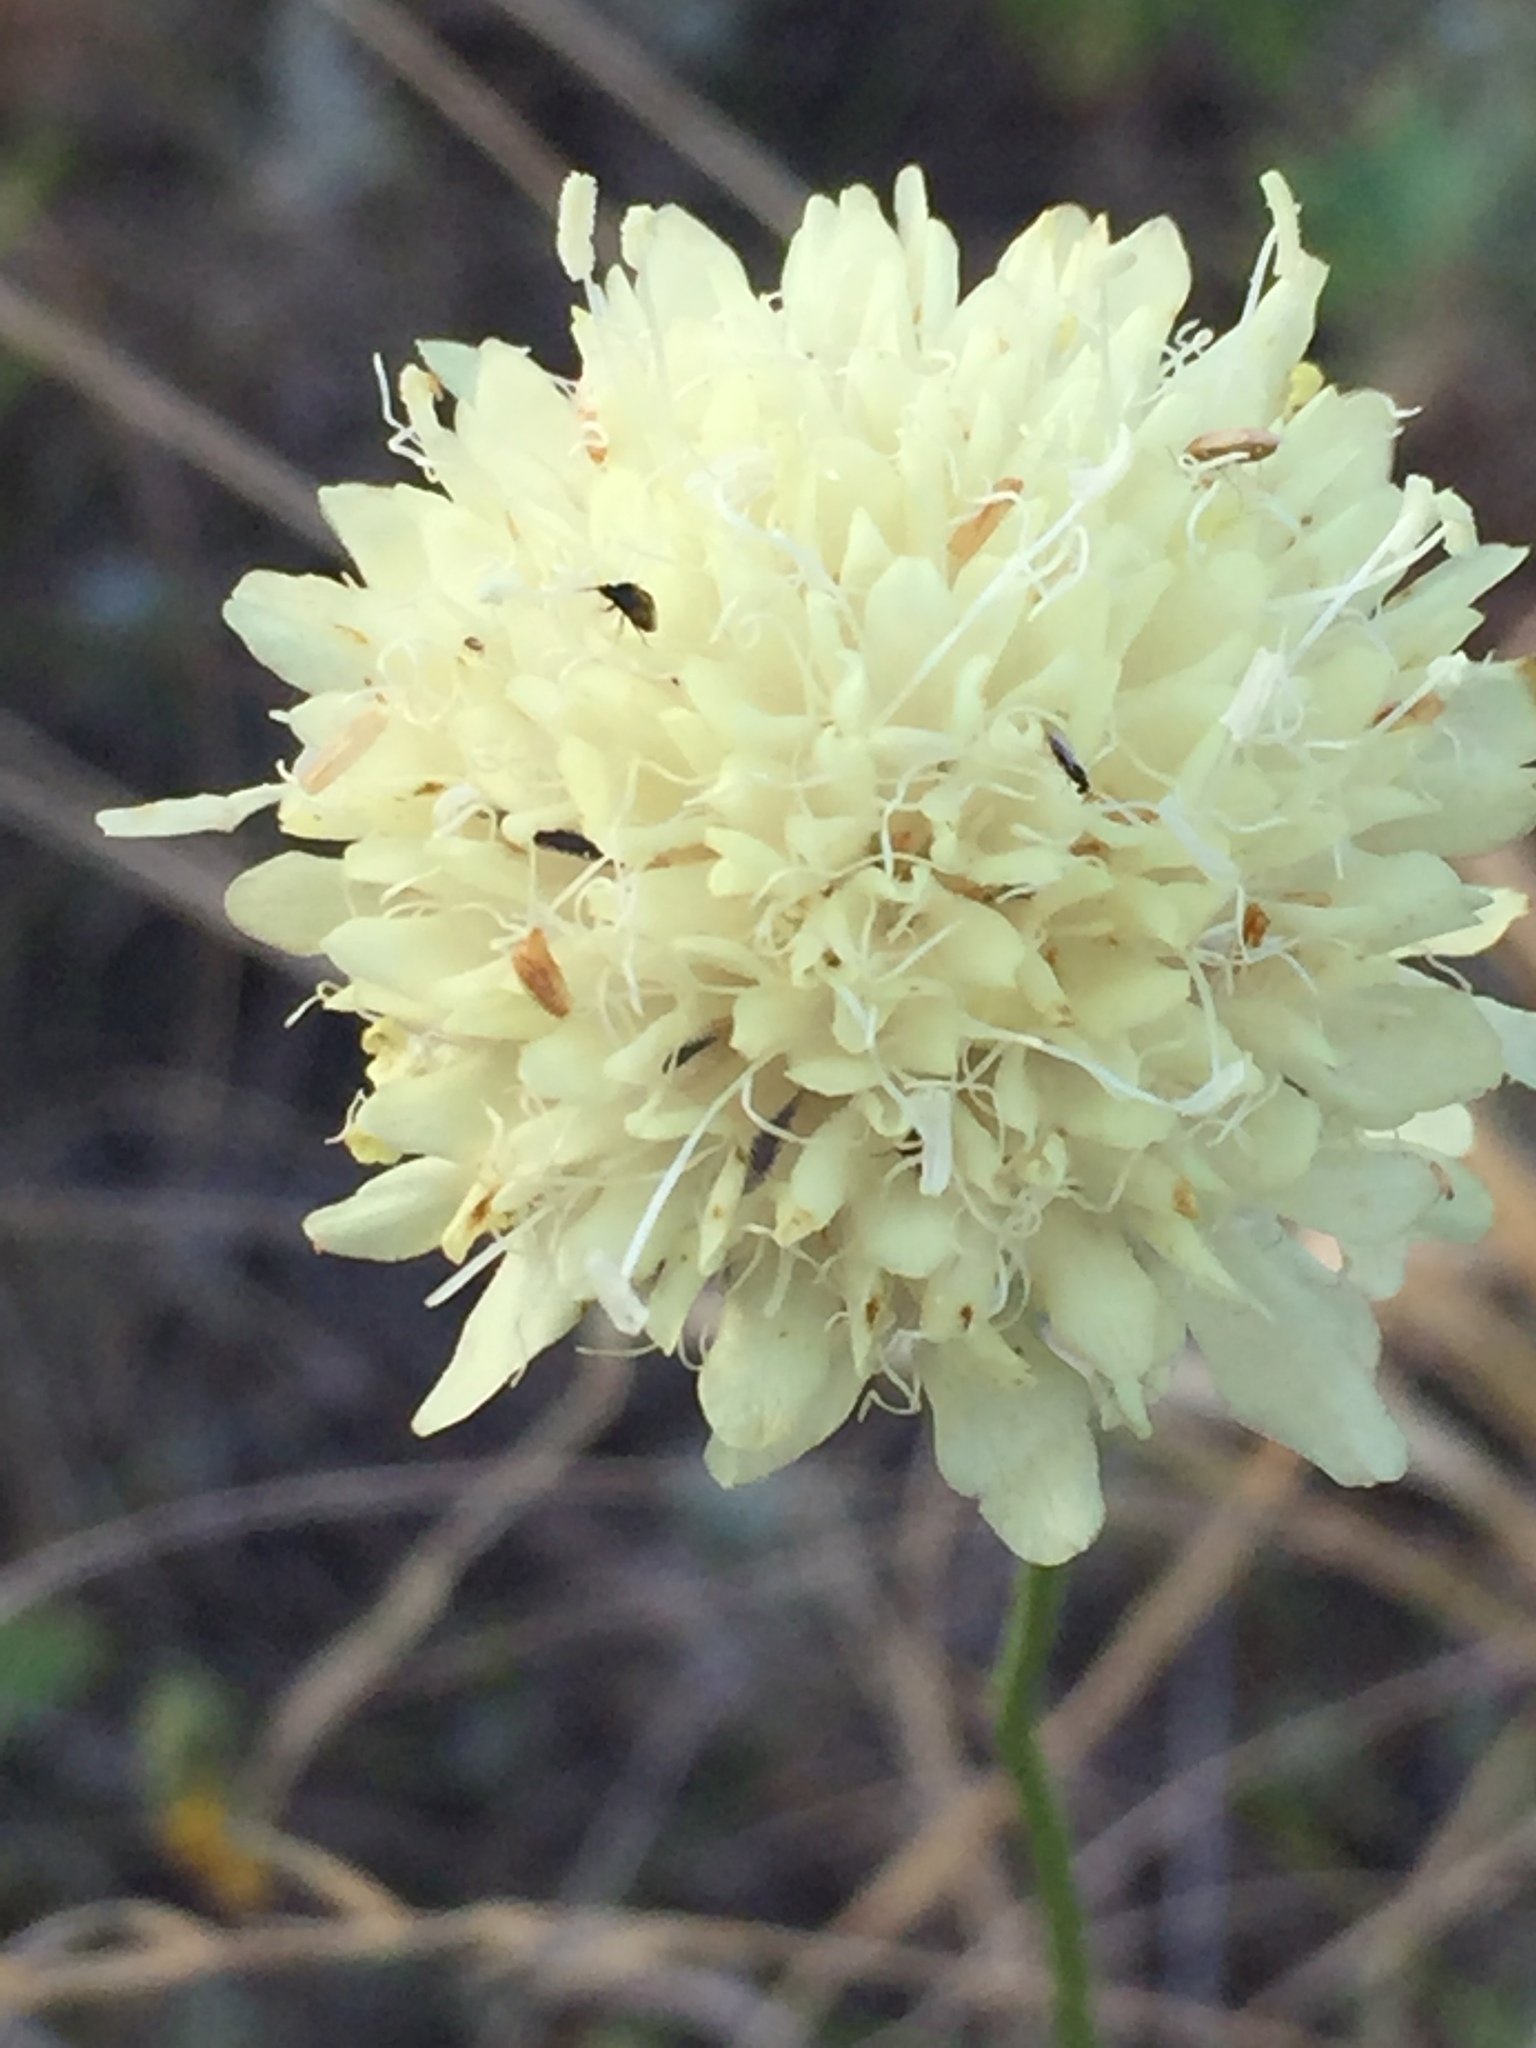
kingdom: Plantae
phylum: Tracheophyta
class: Magnoliopsida
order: Dipsacales
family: Caprifoliaceae
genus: Cephalaria
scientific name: Cephalaria uralensis
